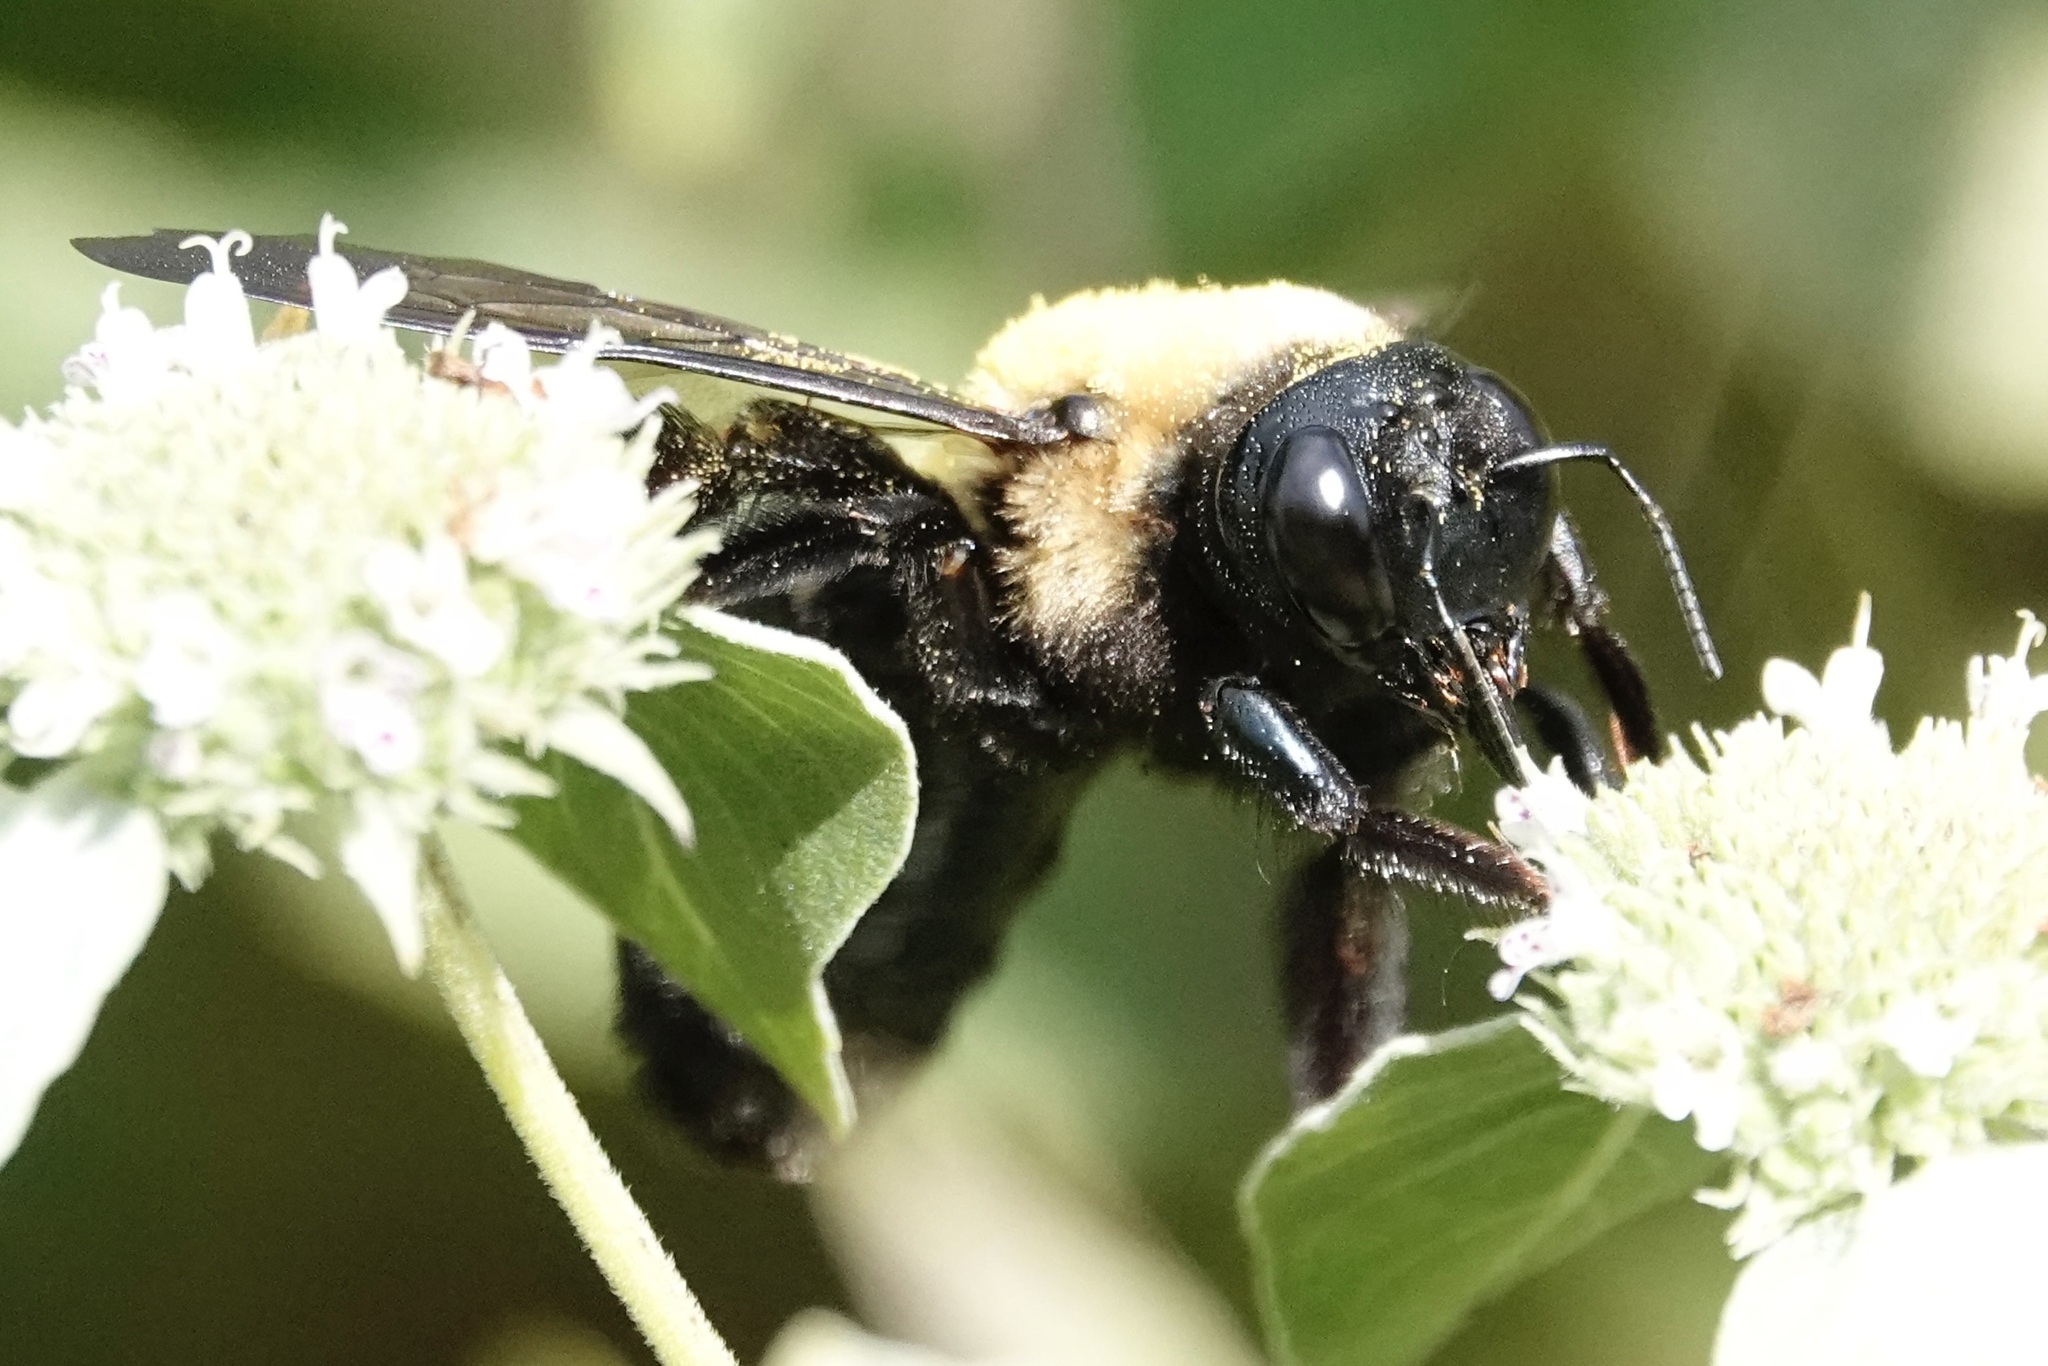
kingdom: Animalia
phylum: Arthropoda
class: Insecta
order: Hymenoptera
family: Apidae
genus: Xylocopa
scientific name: Xylocopa virginica
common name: Carpenter bee
